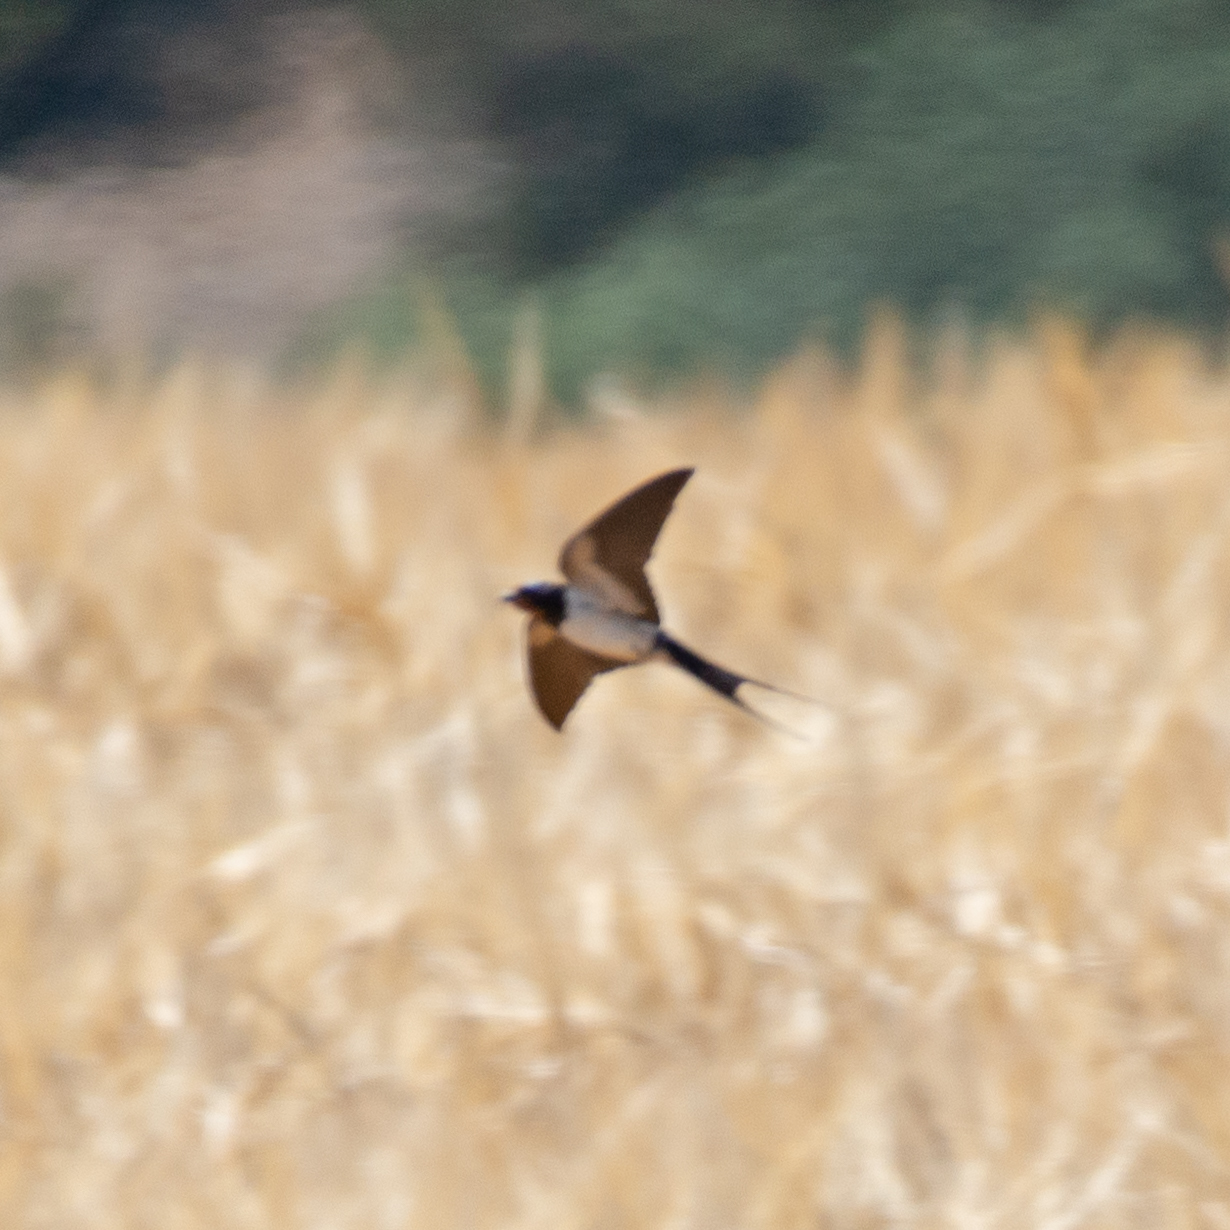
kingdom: Animalia
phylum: Chordata
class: Aves
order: Passeriformes
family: Hirundinidae
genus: Hirundo
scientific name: Hirundo rustica
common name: Barn swallow
